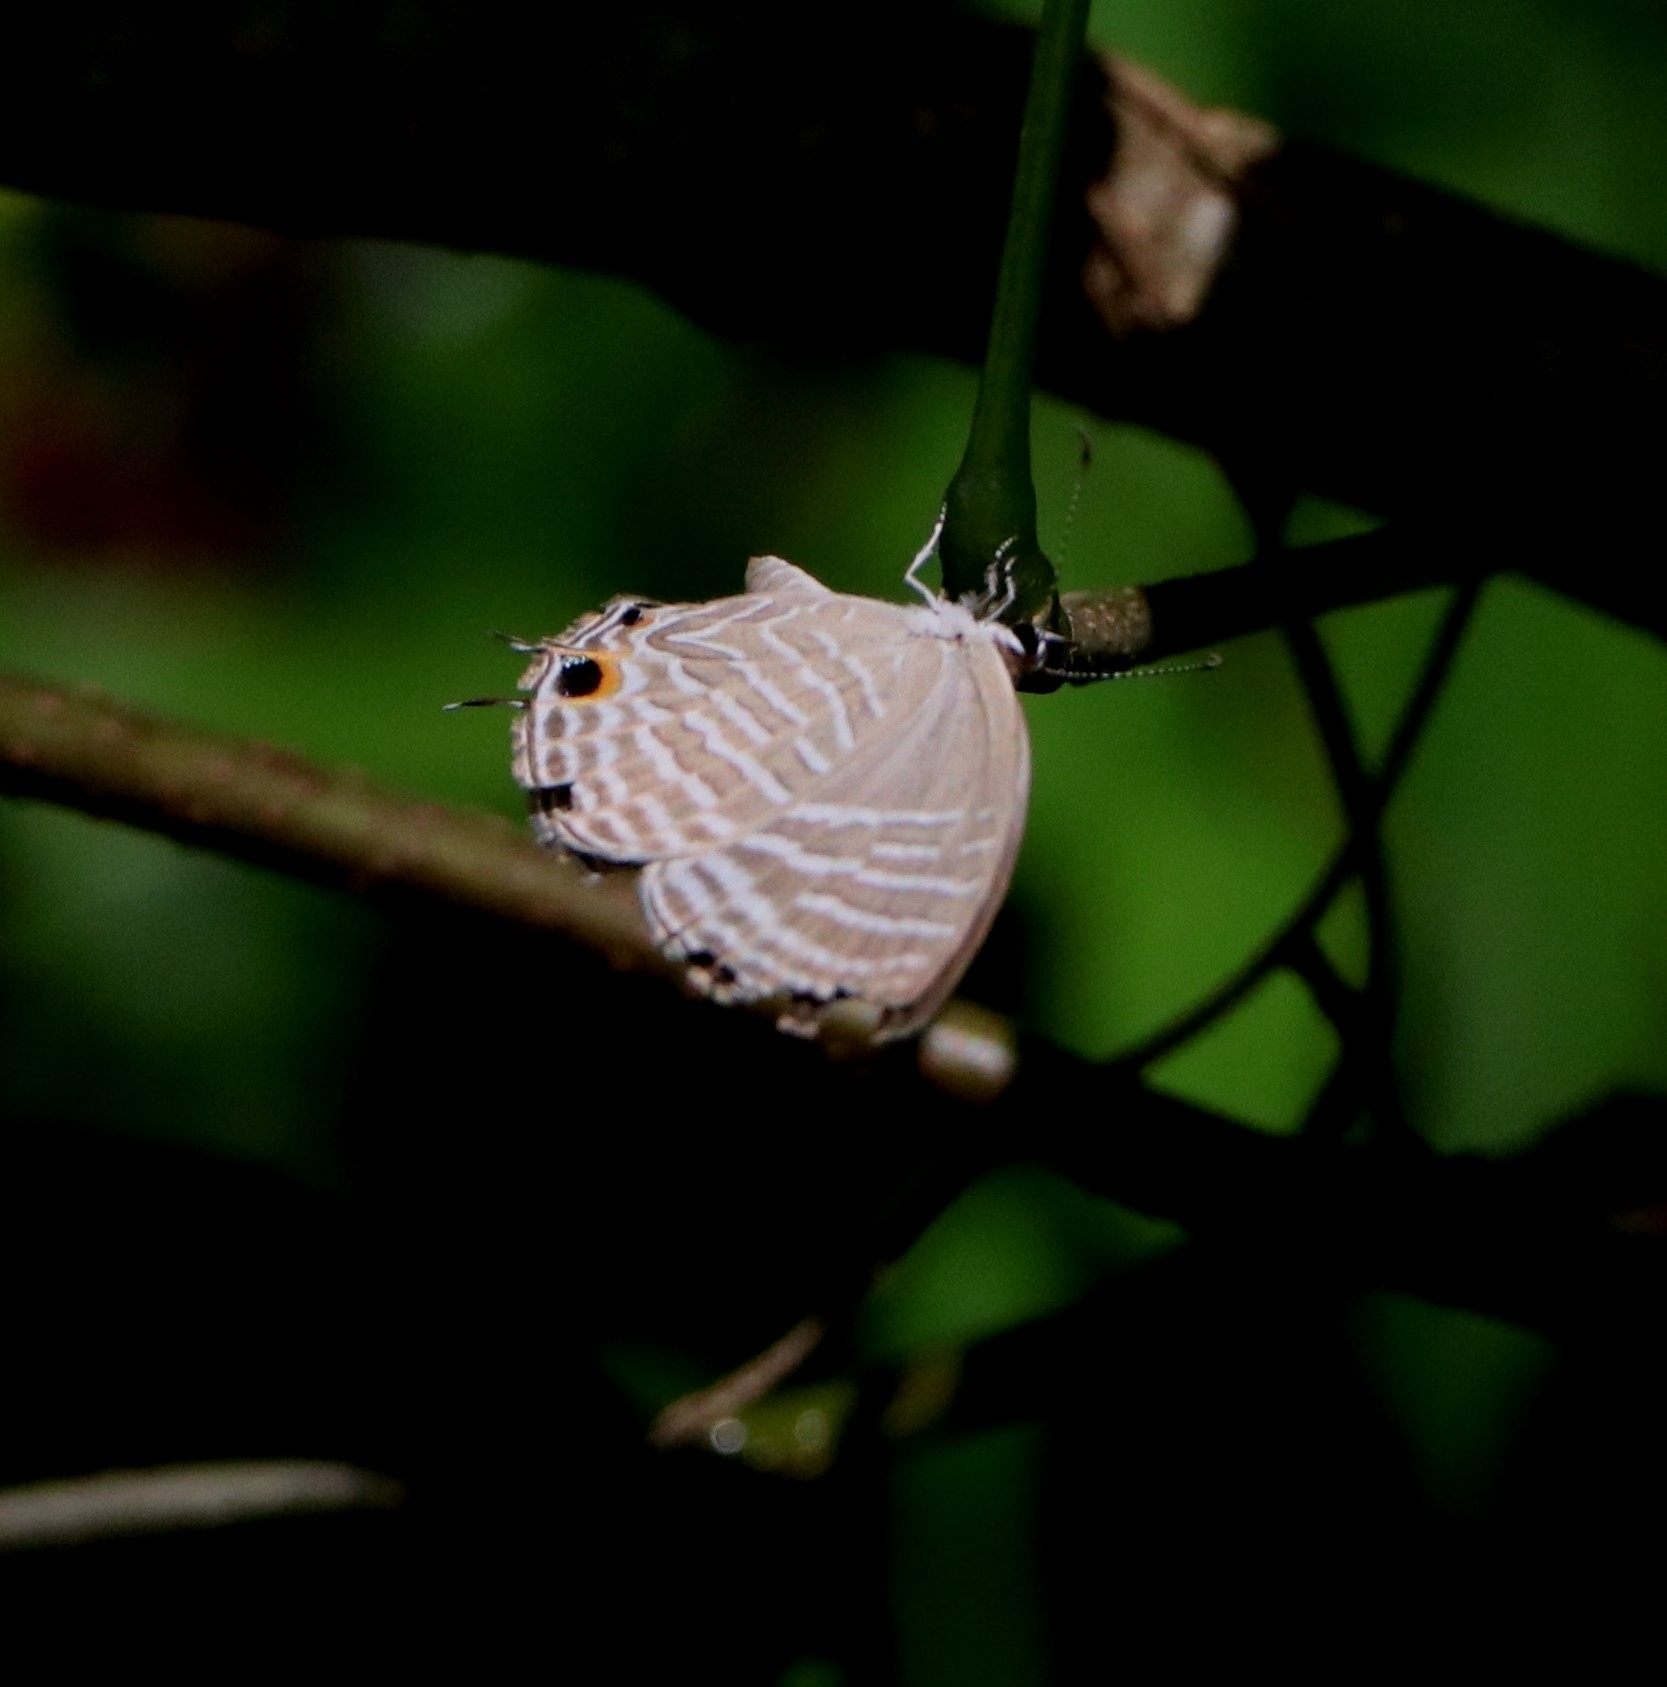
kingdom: Animalia
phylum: Arthropoda
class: Insecta
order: Lepidoptera
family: Lycaenidae
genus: Jamides
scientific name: Jamides celeno
